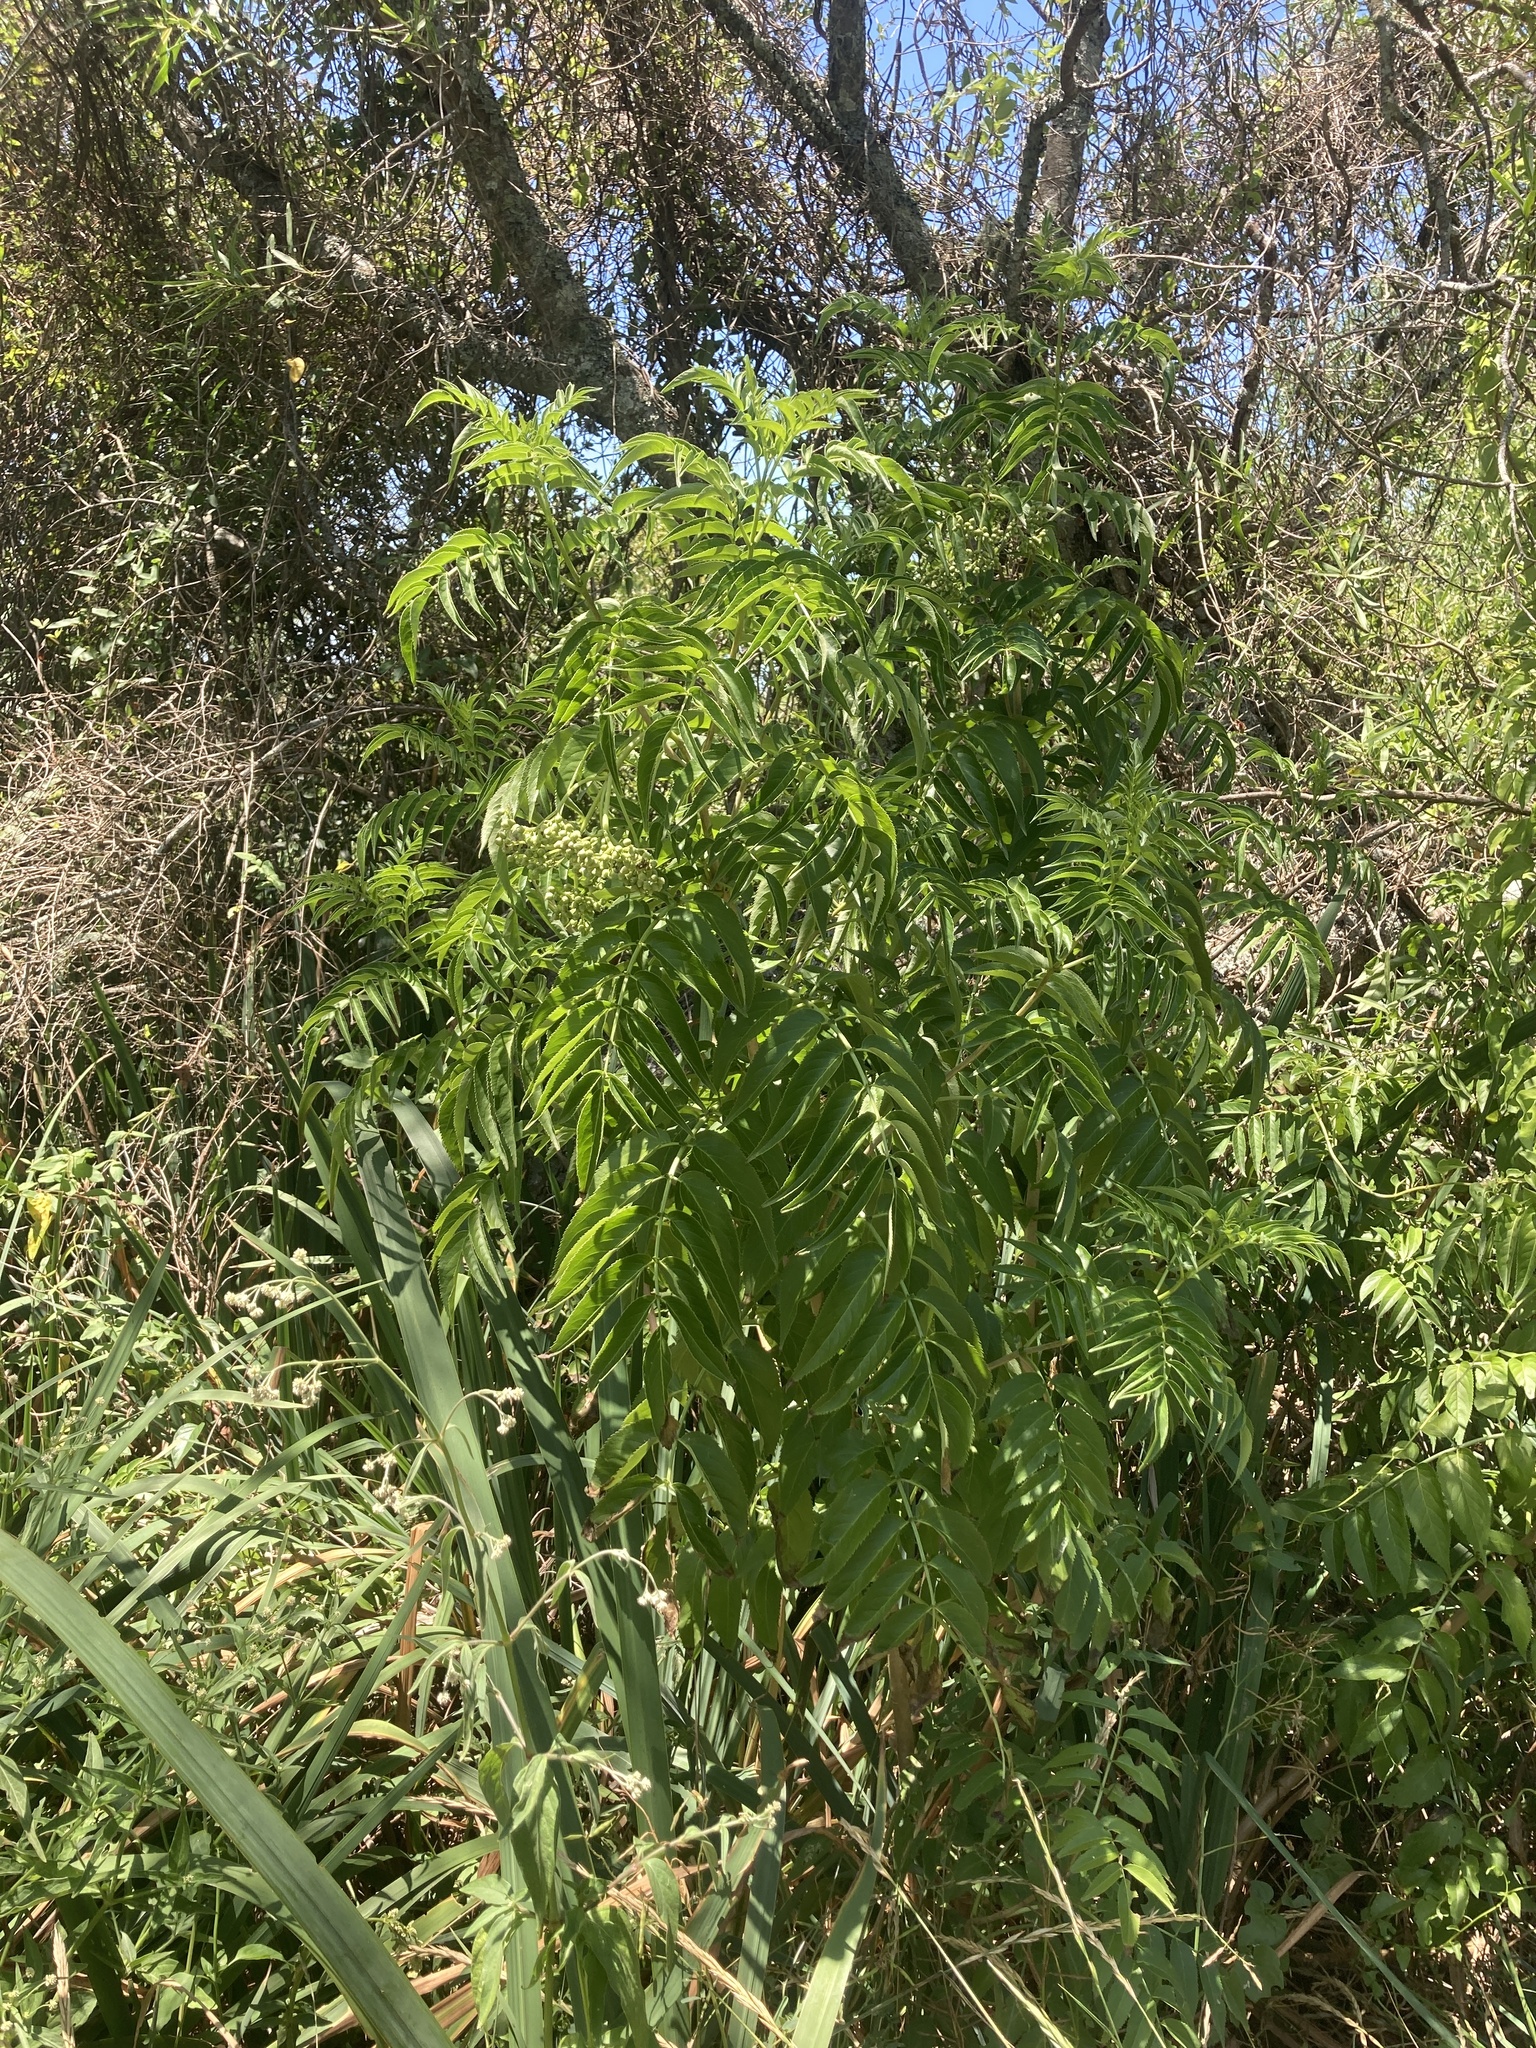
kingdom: Plantae
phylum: Tracheophyta
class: Magnoliopsida
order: Dipsacales
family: Viburnaceae
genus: Sambucus
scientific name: Sambucus australis
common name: Southern elder
